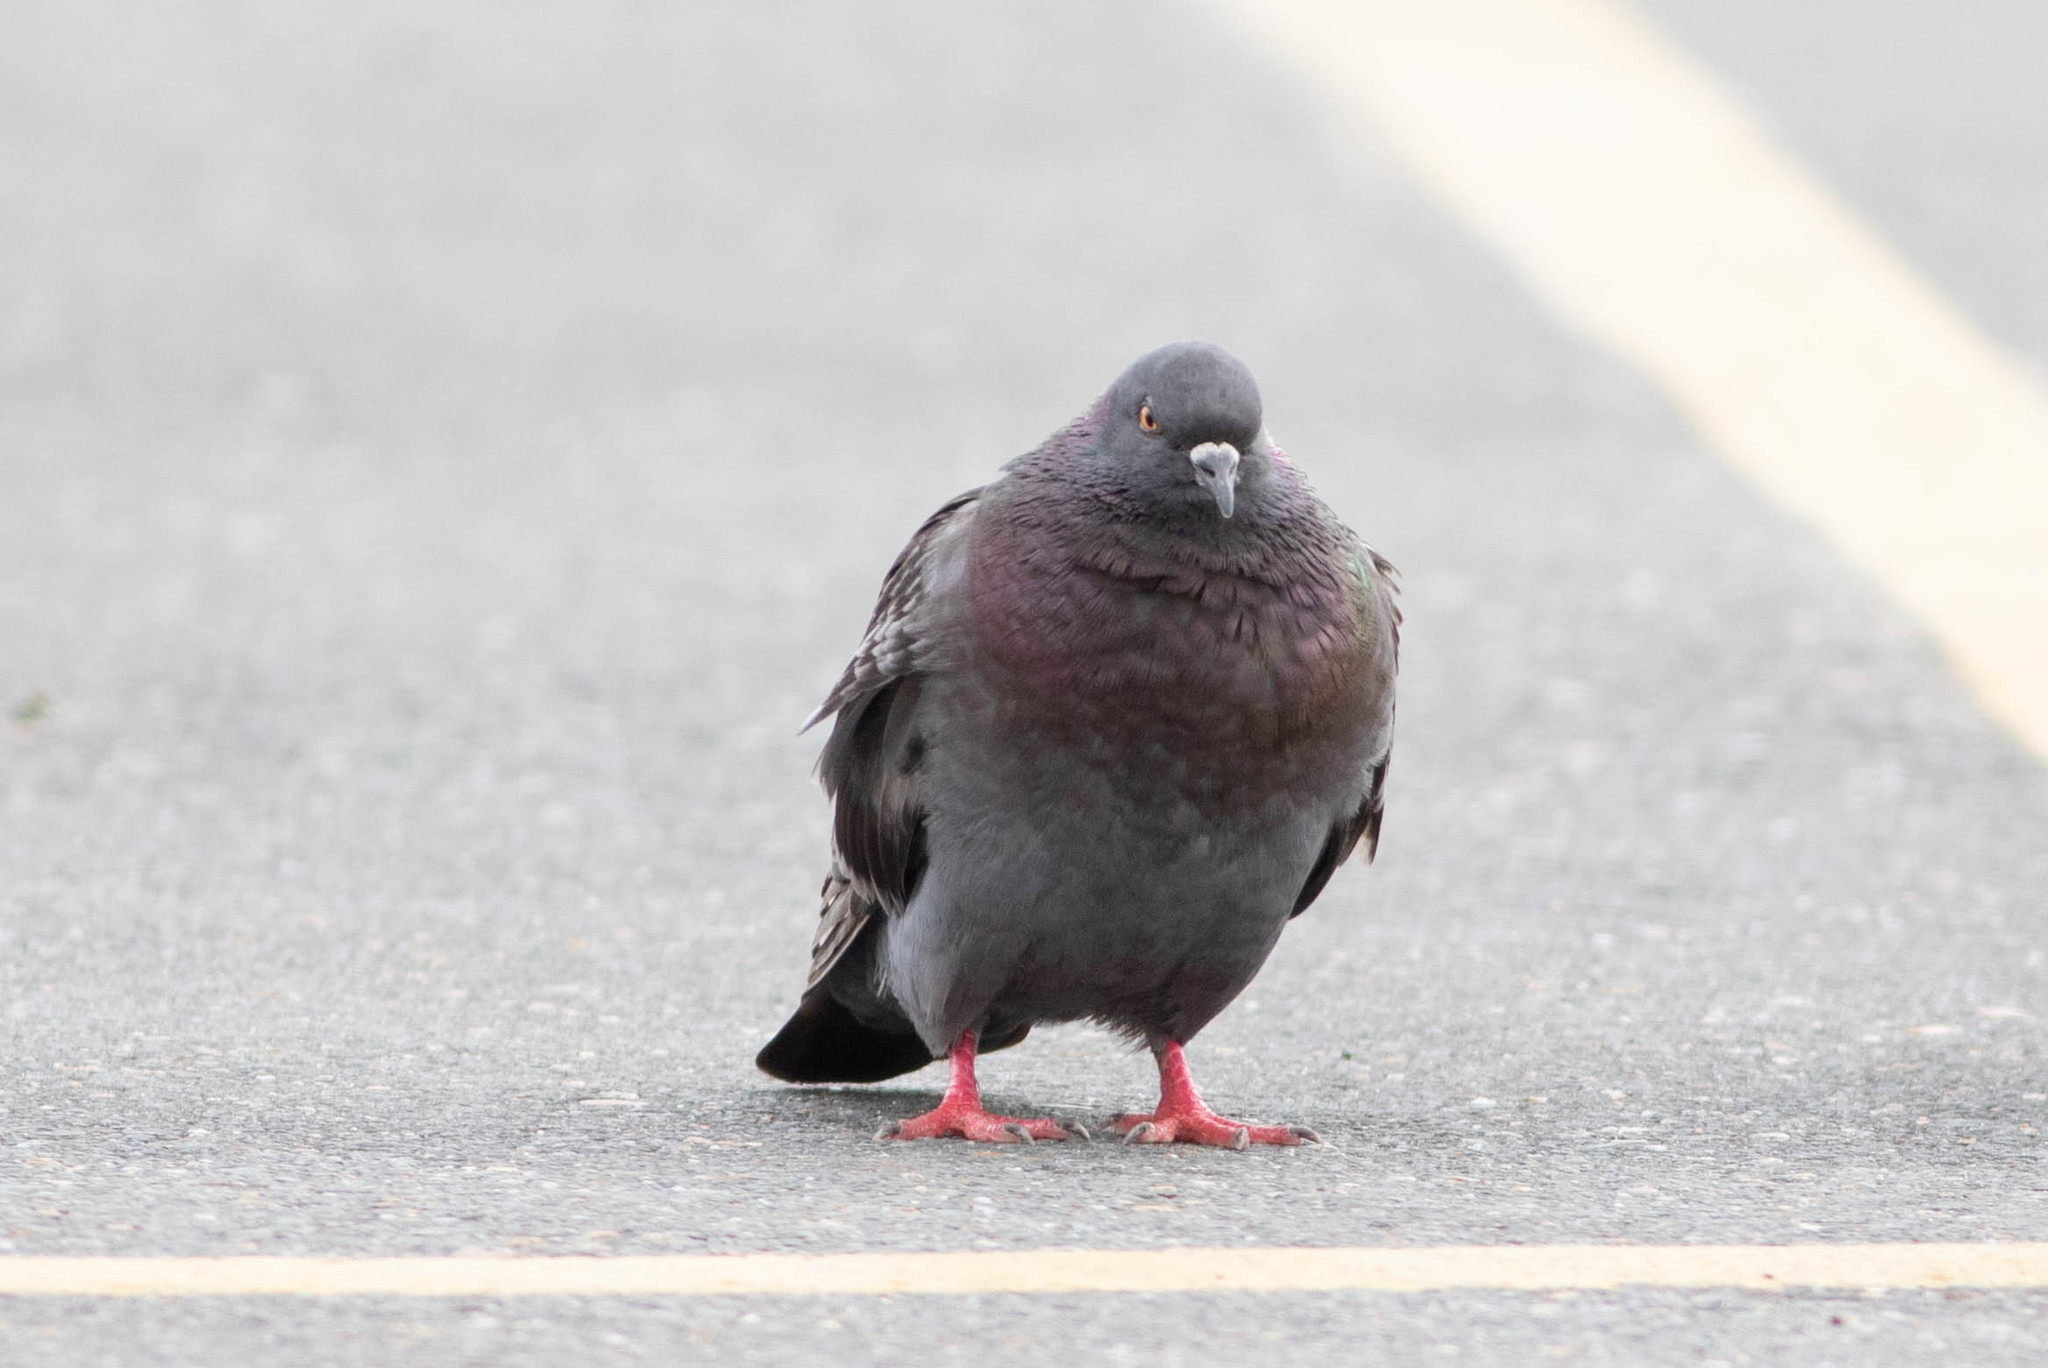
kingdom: Animalia
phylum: Chordata
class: Aves
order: Columbiformes
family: Columbidae
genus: Columba
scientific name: Columba livia
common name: Rock pigeon
